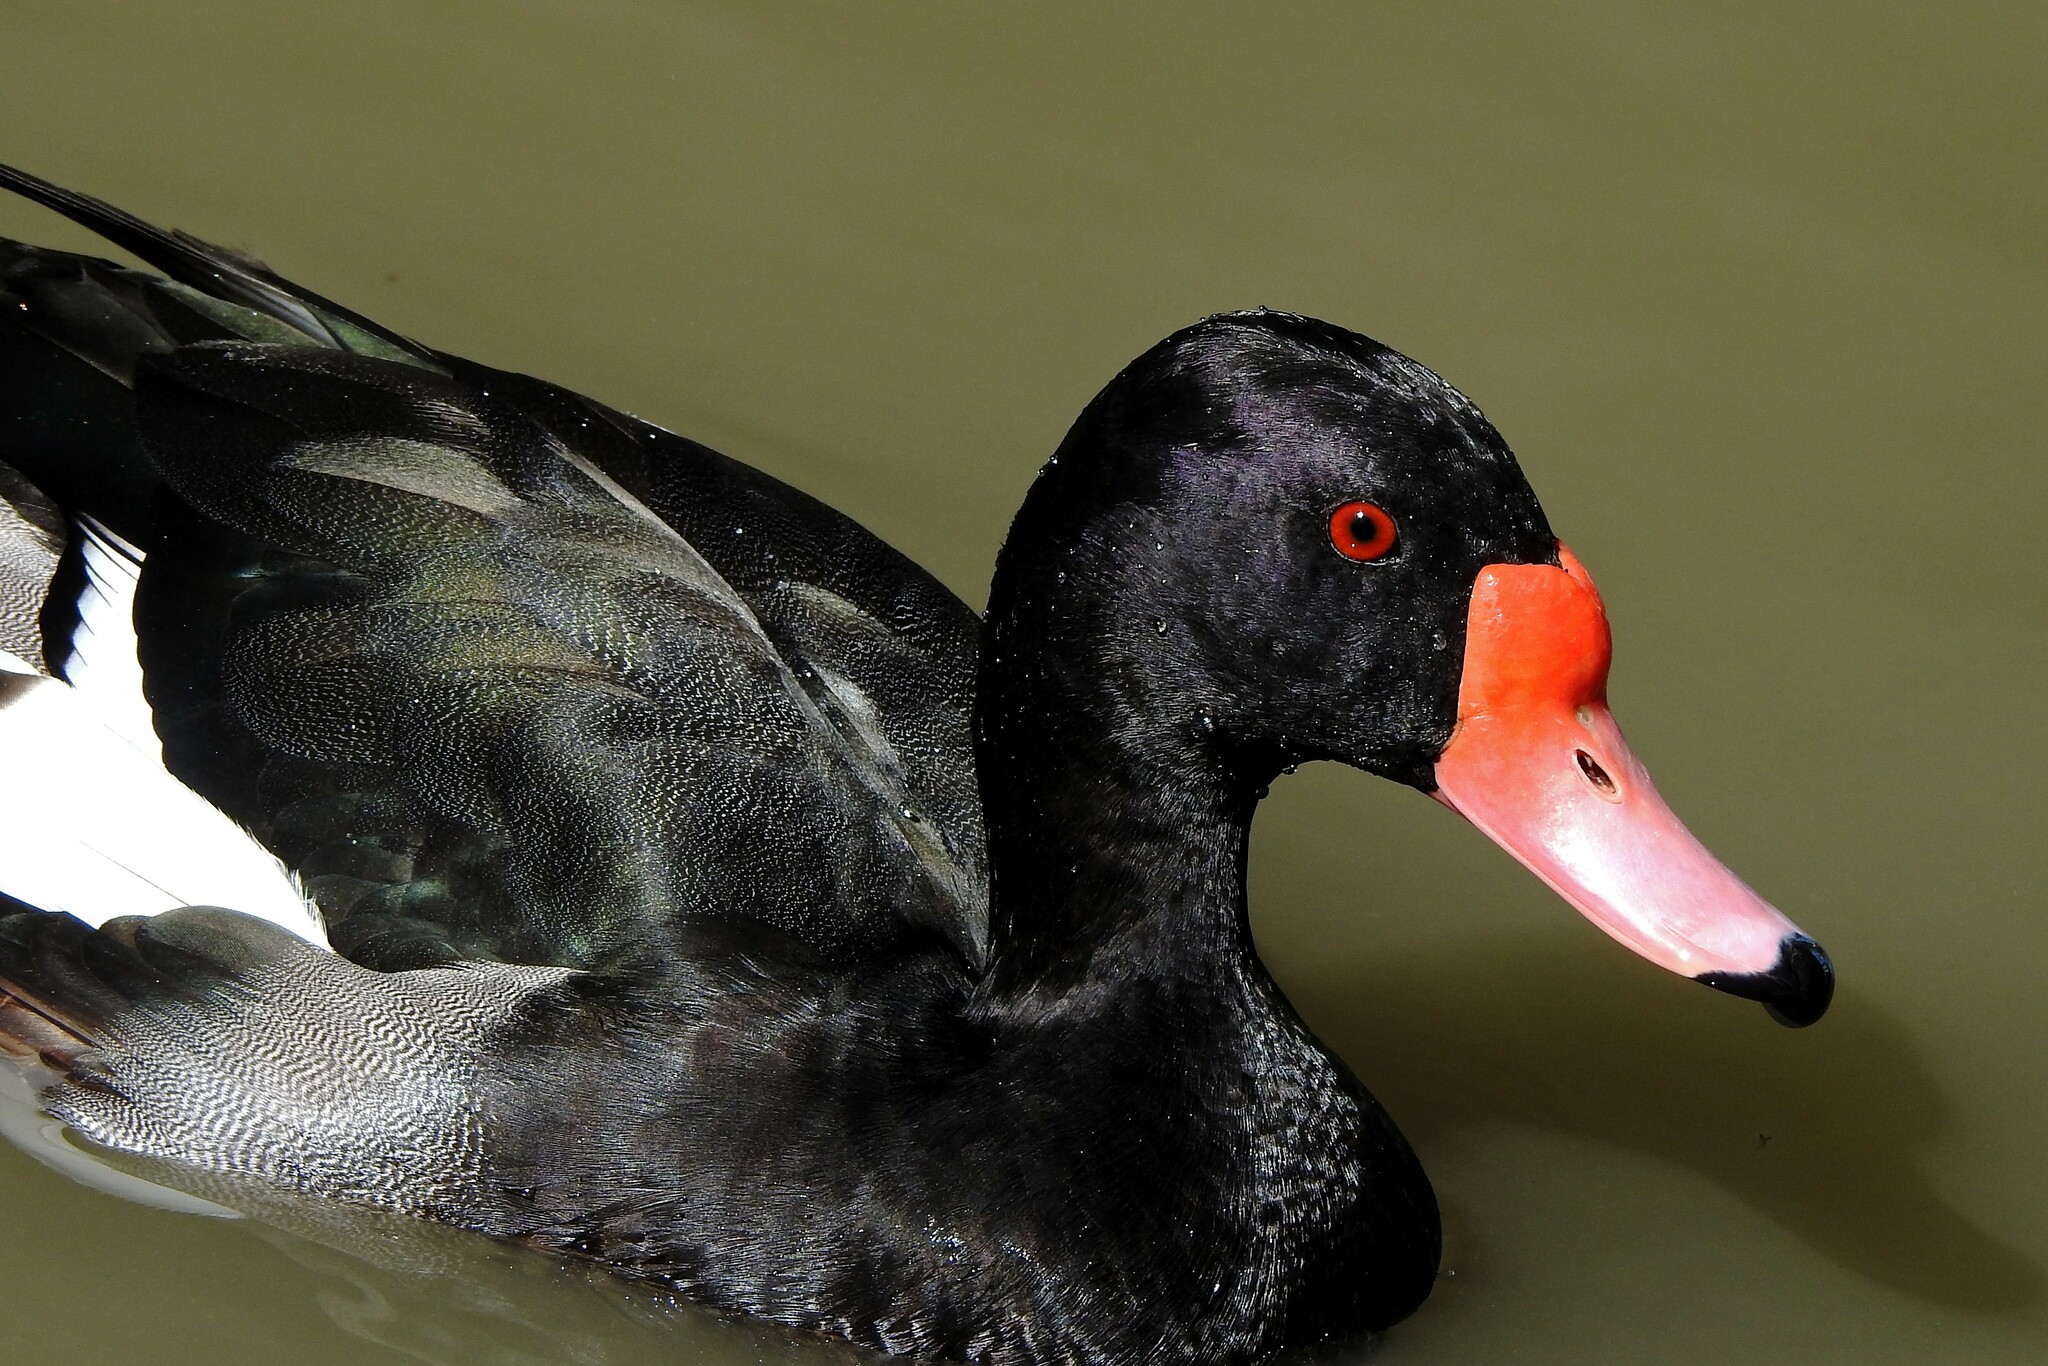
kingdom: Animalia
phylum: Chordata
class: Aves
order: Anseriformes
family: Anatidae
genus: Netta
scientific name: Netta peposaca
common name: Rosy-billed pochard
